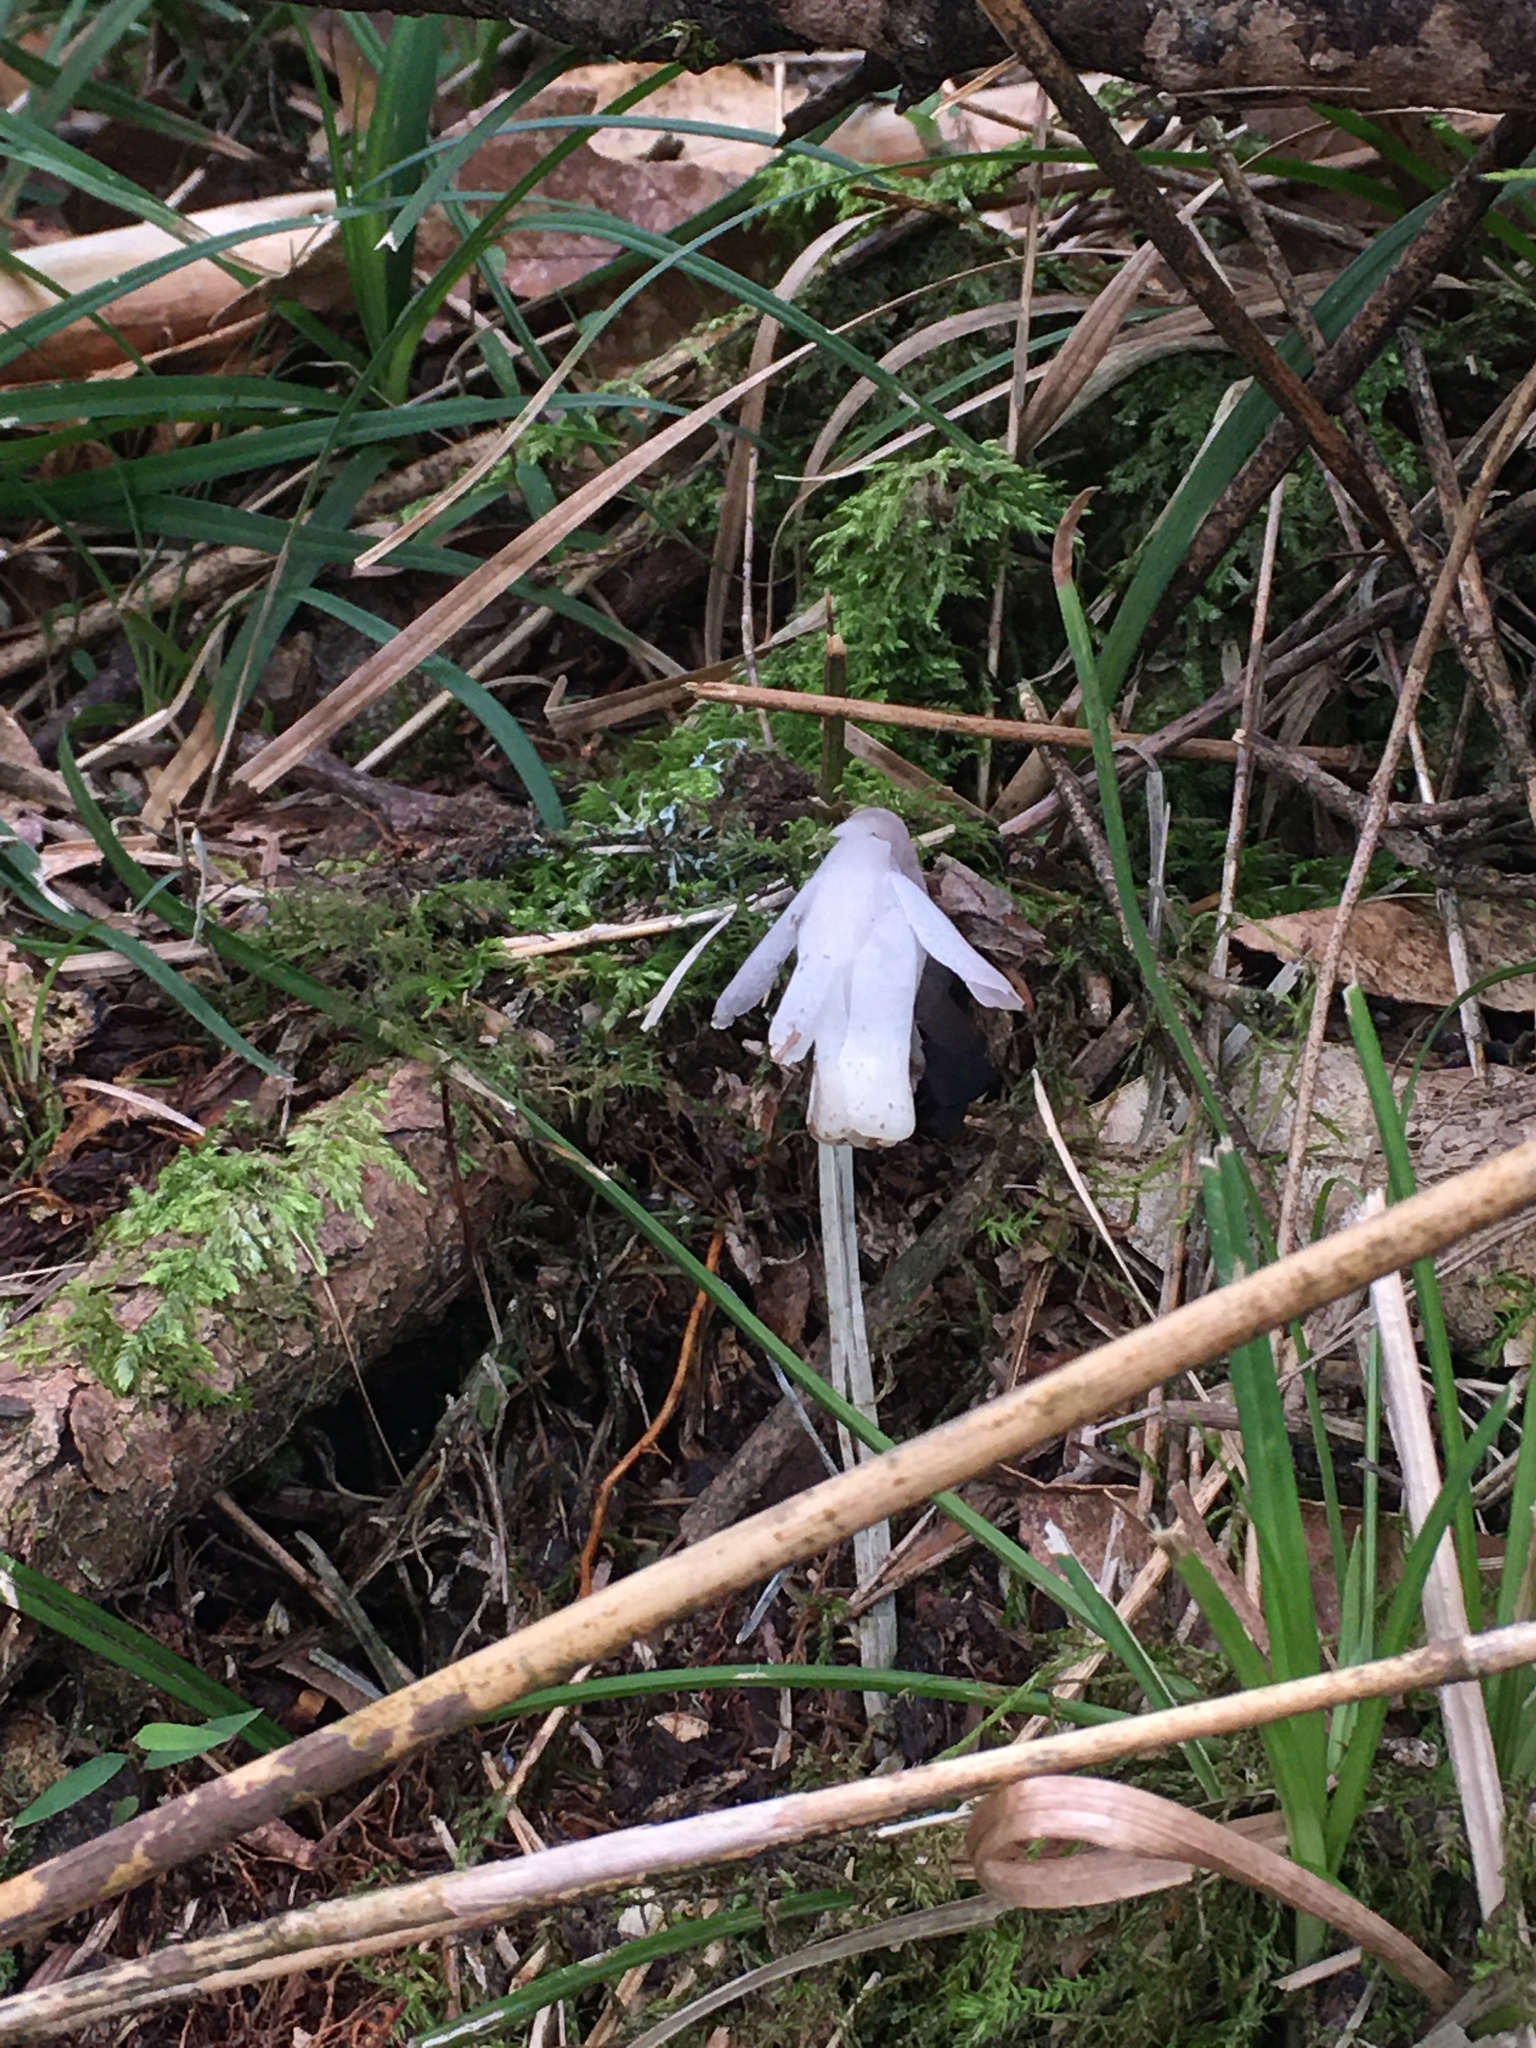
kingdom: Plantae
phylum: Tracheophyta
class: Magnoliopsida
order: Ericales
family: Ericaceae
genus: Monotropastrum
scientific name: Monotropastrum humile
